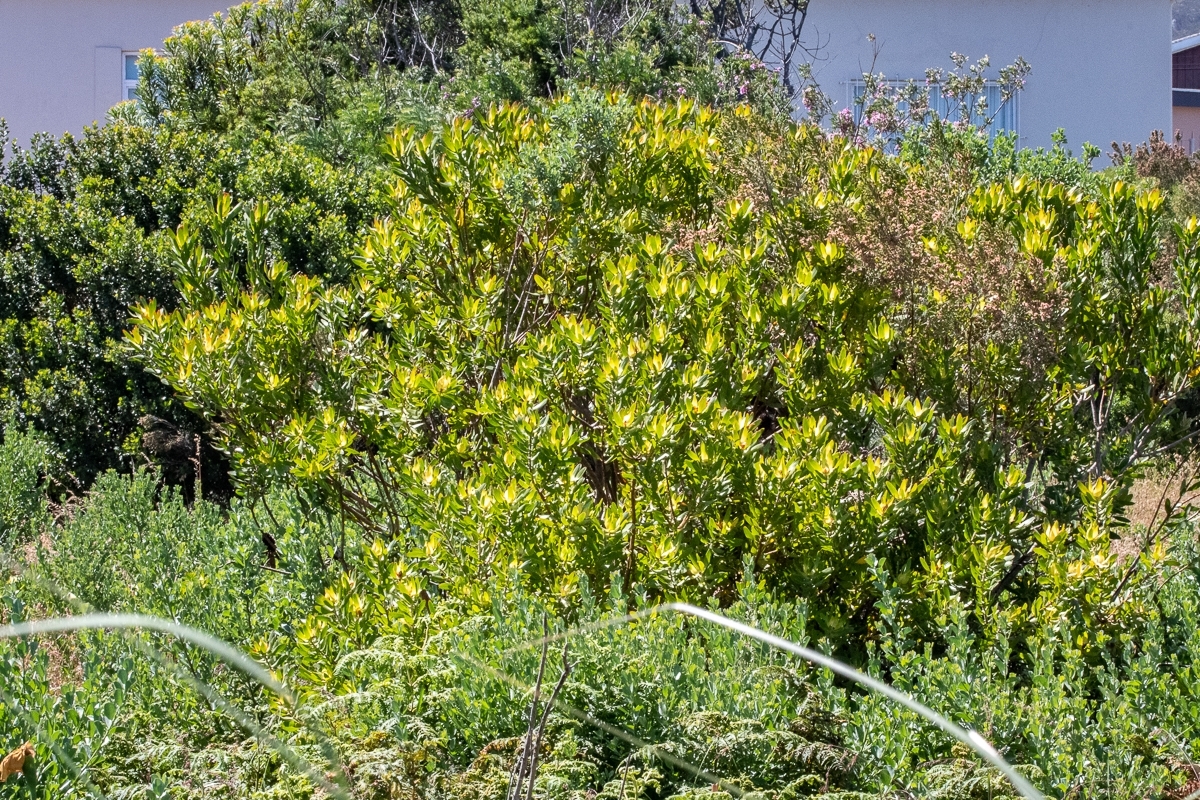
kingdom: Plantae
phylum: Tracheophyta
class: Magnoliopsida
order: Proteales
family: Proteaceae
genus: Leucadendron
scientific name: Leucadendron laureolum
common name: Golden sunshinebush
